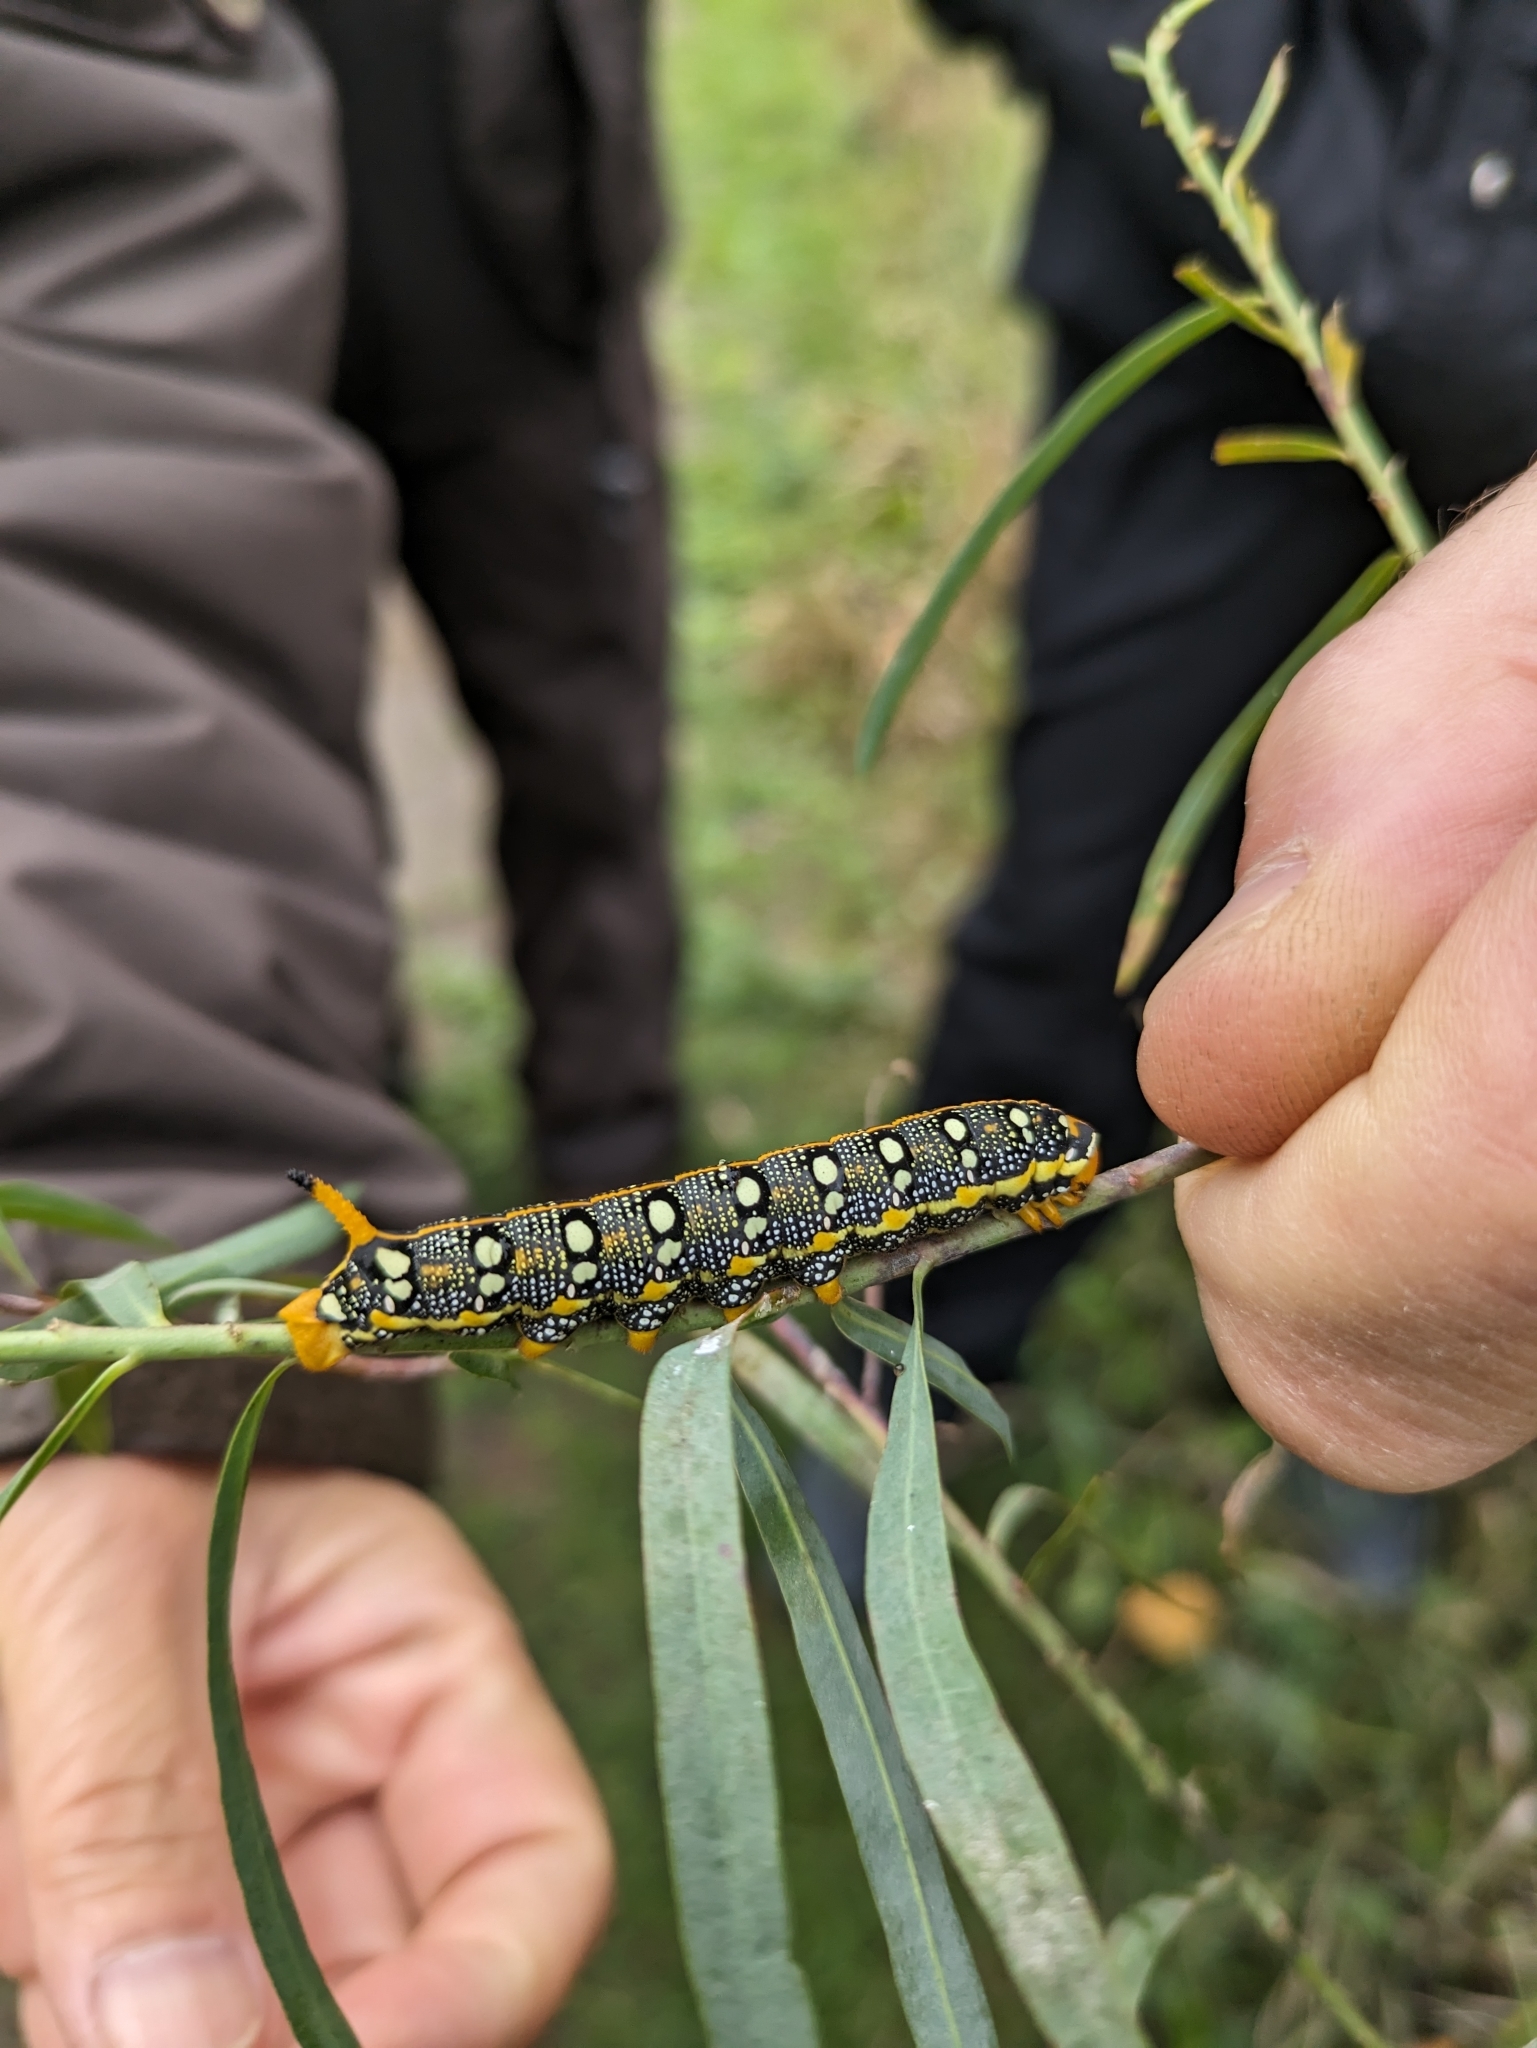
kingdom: Animalia
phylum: Arthropoda
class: Insecta
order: Lepidoptera
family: Sphingidae
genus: Hyles
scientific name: Hyles euphorbiae
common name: Spurge hawk-moth
